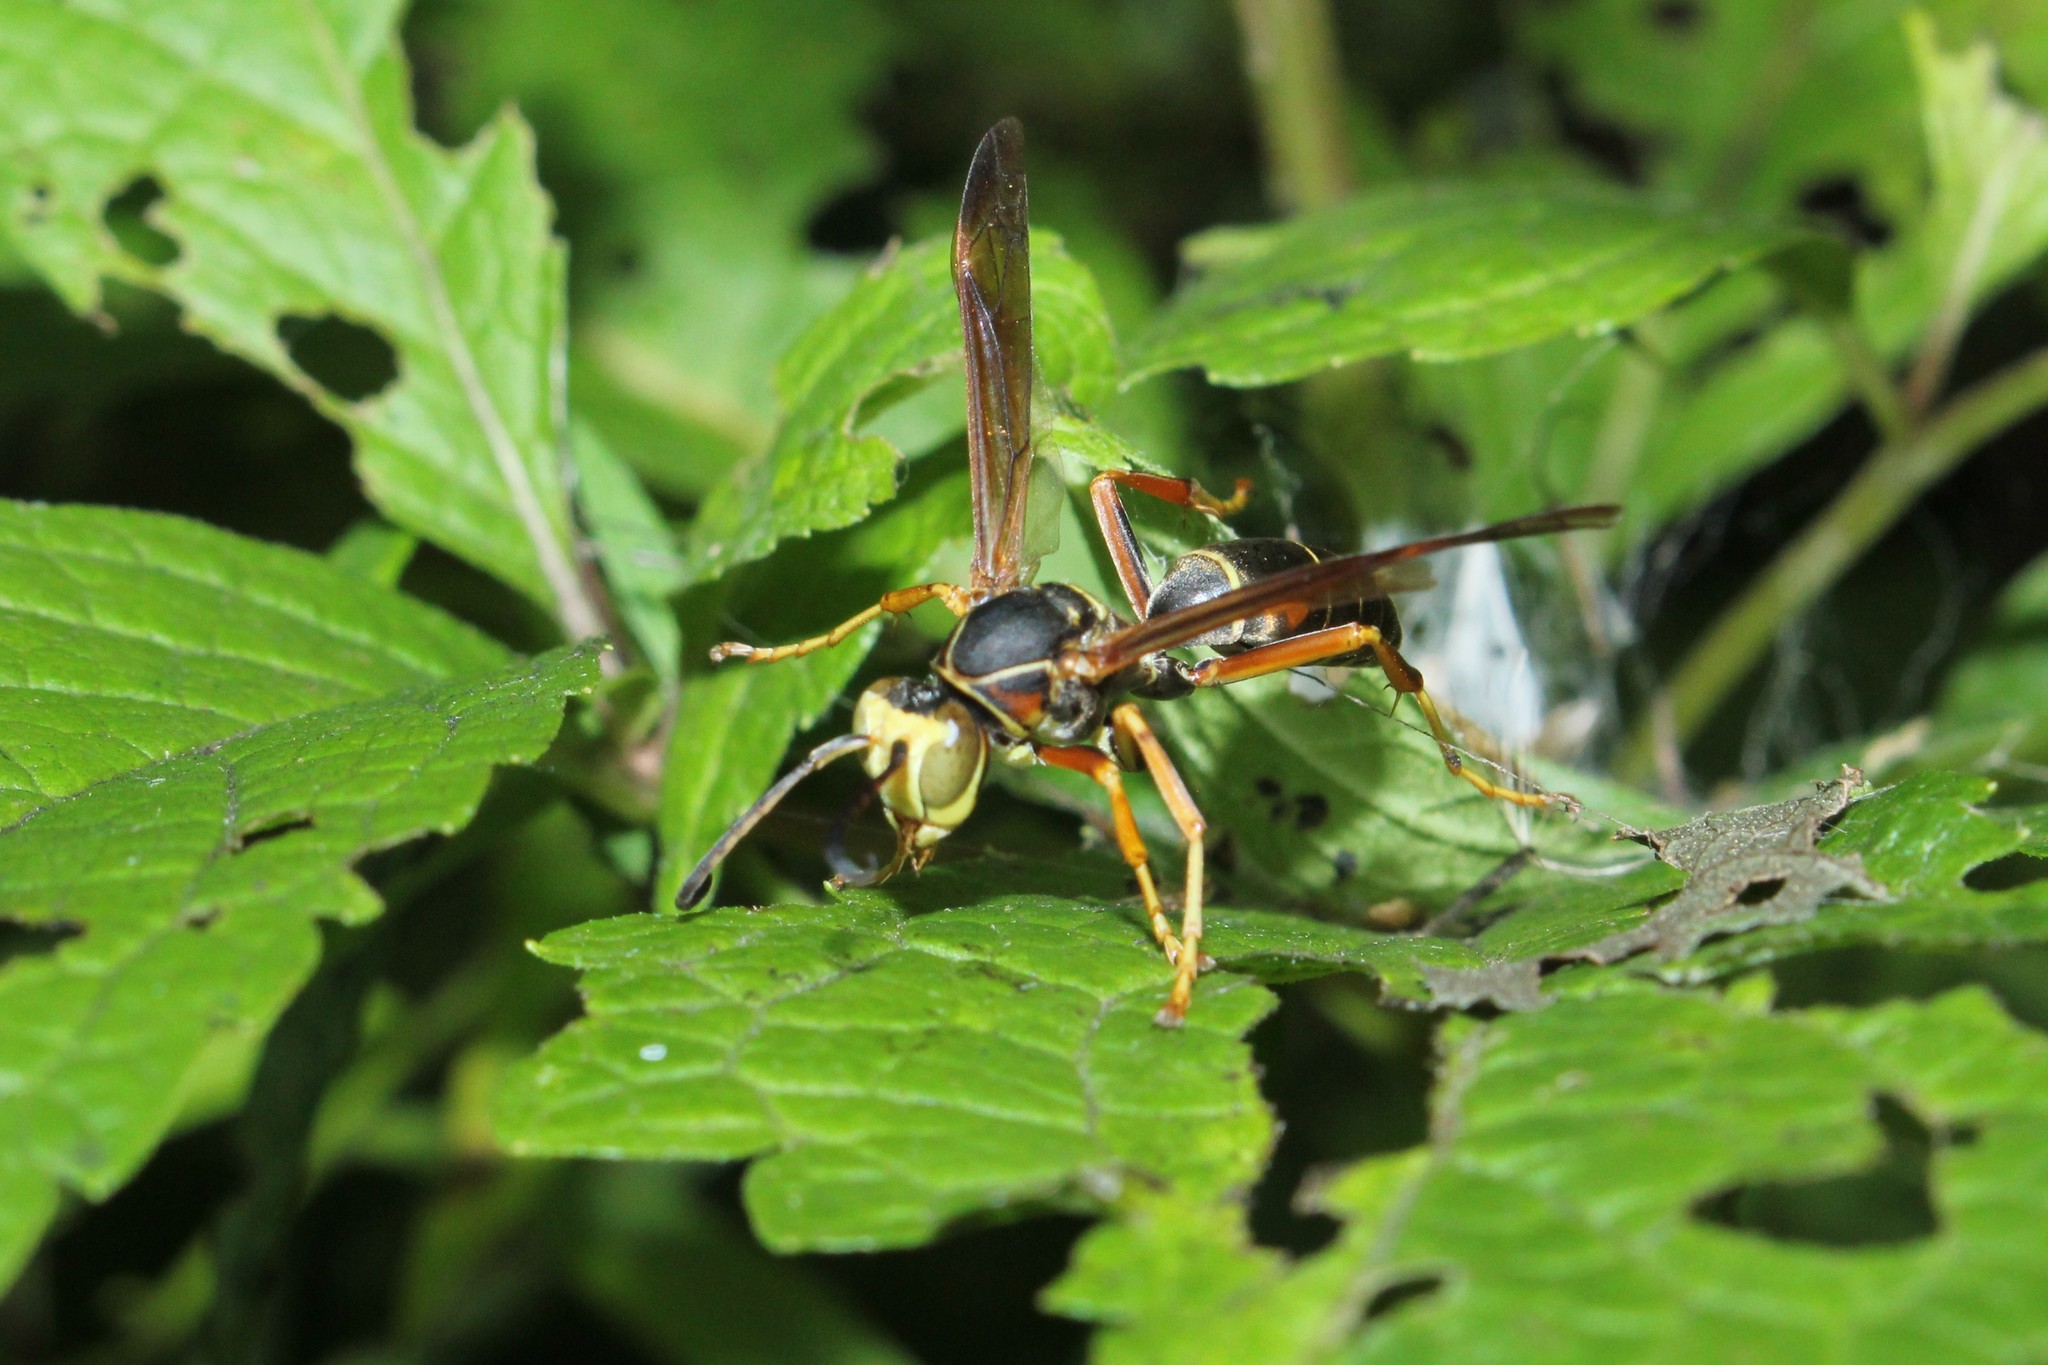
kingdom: Animalia
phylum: Arthropoda
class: Insecta
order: Hymenoptera
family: Eumenidae
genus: Polistes
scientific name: Polistes fuscatus
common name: Dark paper wasp
